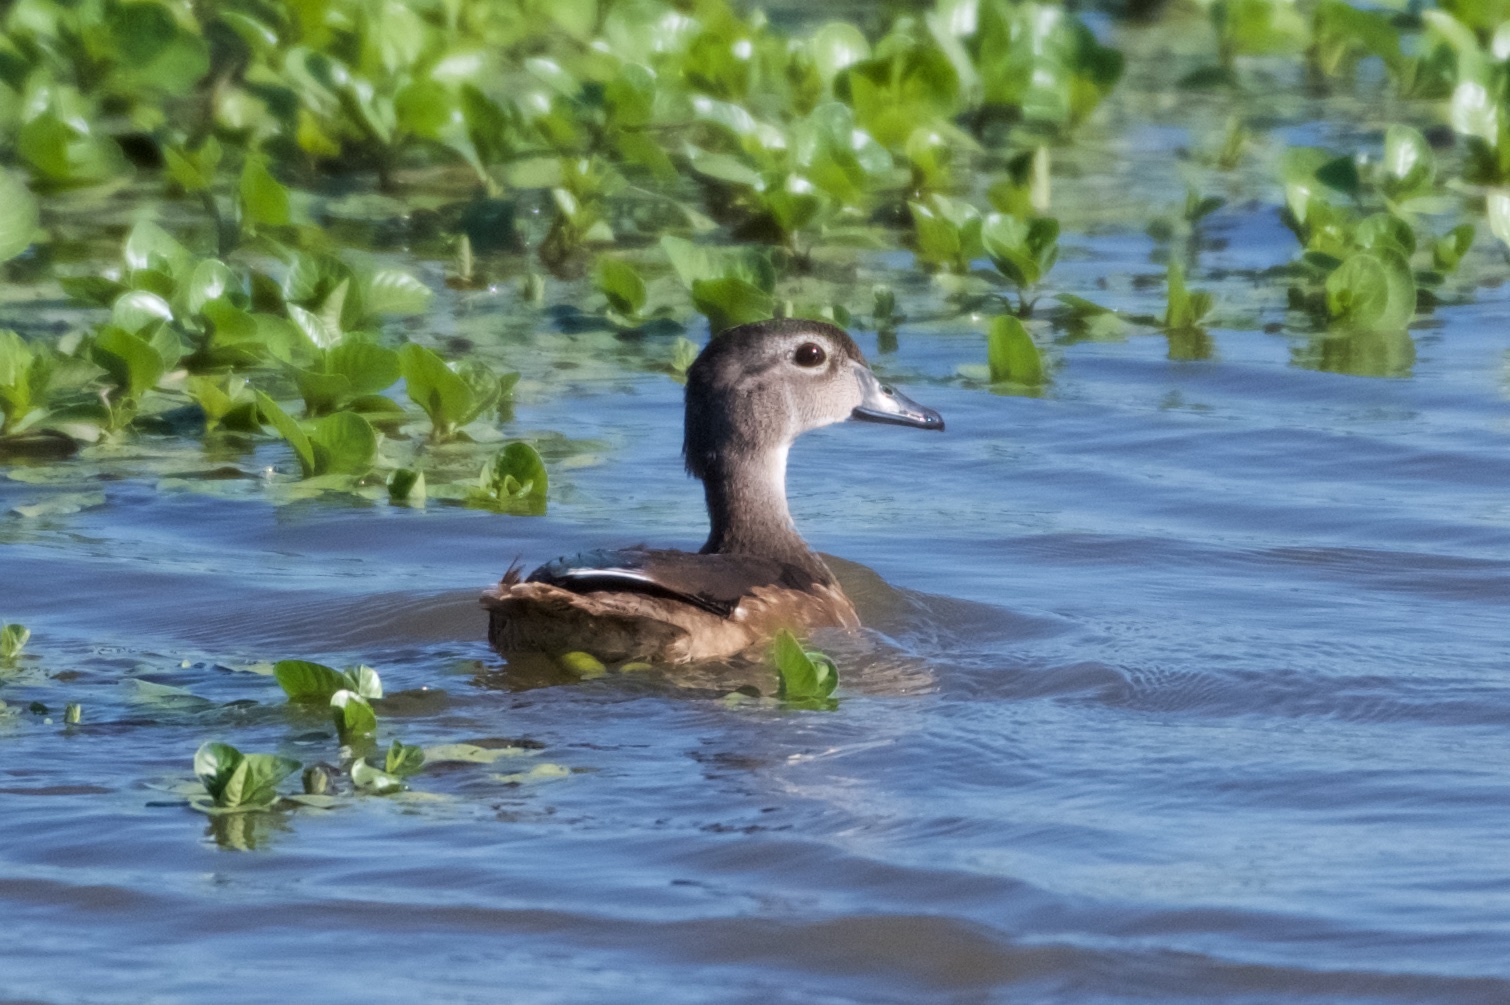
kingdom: Animalia
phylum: Chordata
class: Aves
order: Anseriformes
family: Anatidae
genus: Aix
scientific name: Aix sponsa
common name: Wood duck
